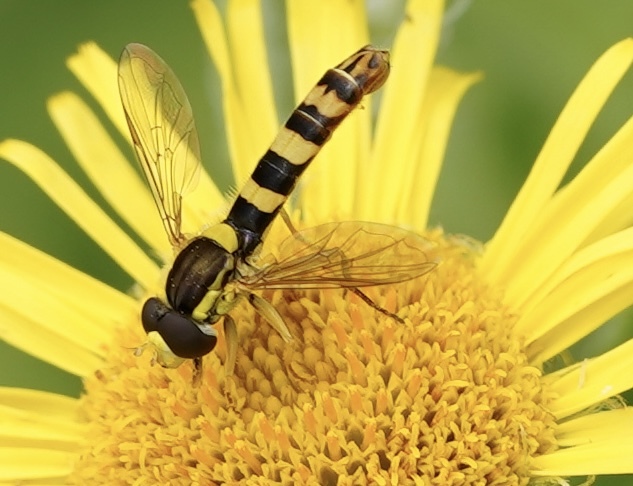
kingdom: Animalia
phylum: Arthropoda
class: Insecta
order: Diptera
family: Syrphidae
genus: Sphaerophoria
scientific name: Sphaerophoria scripta
